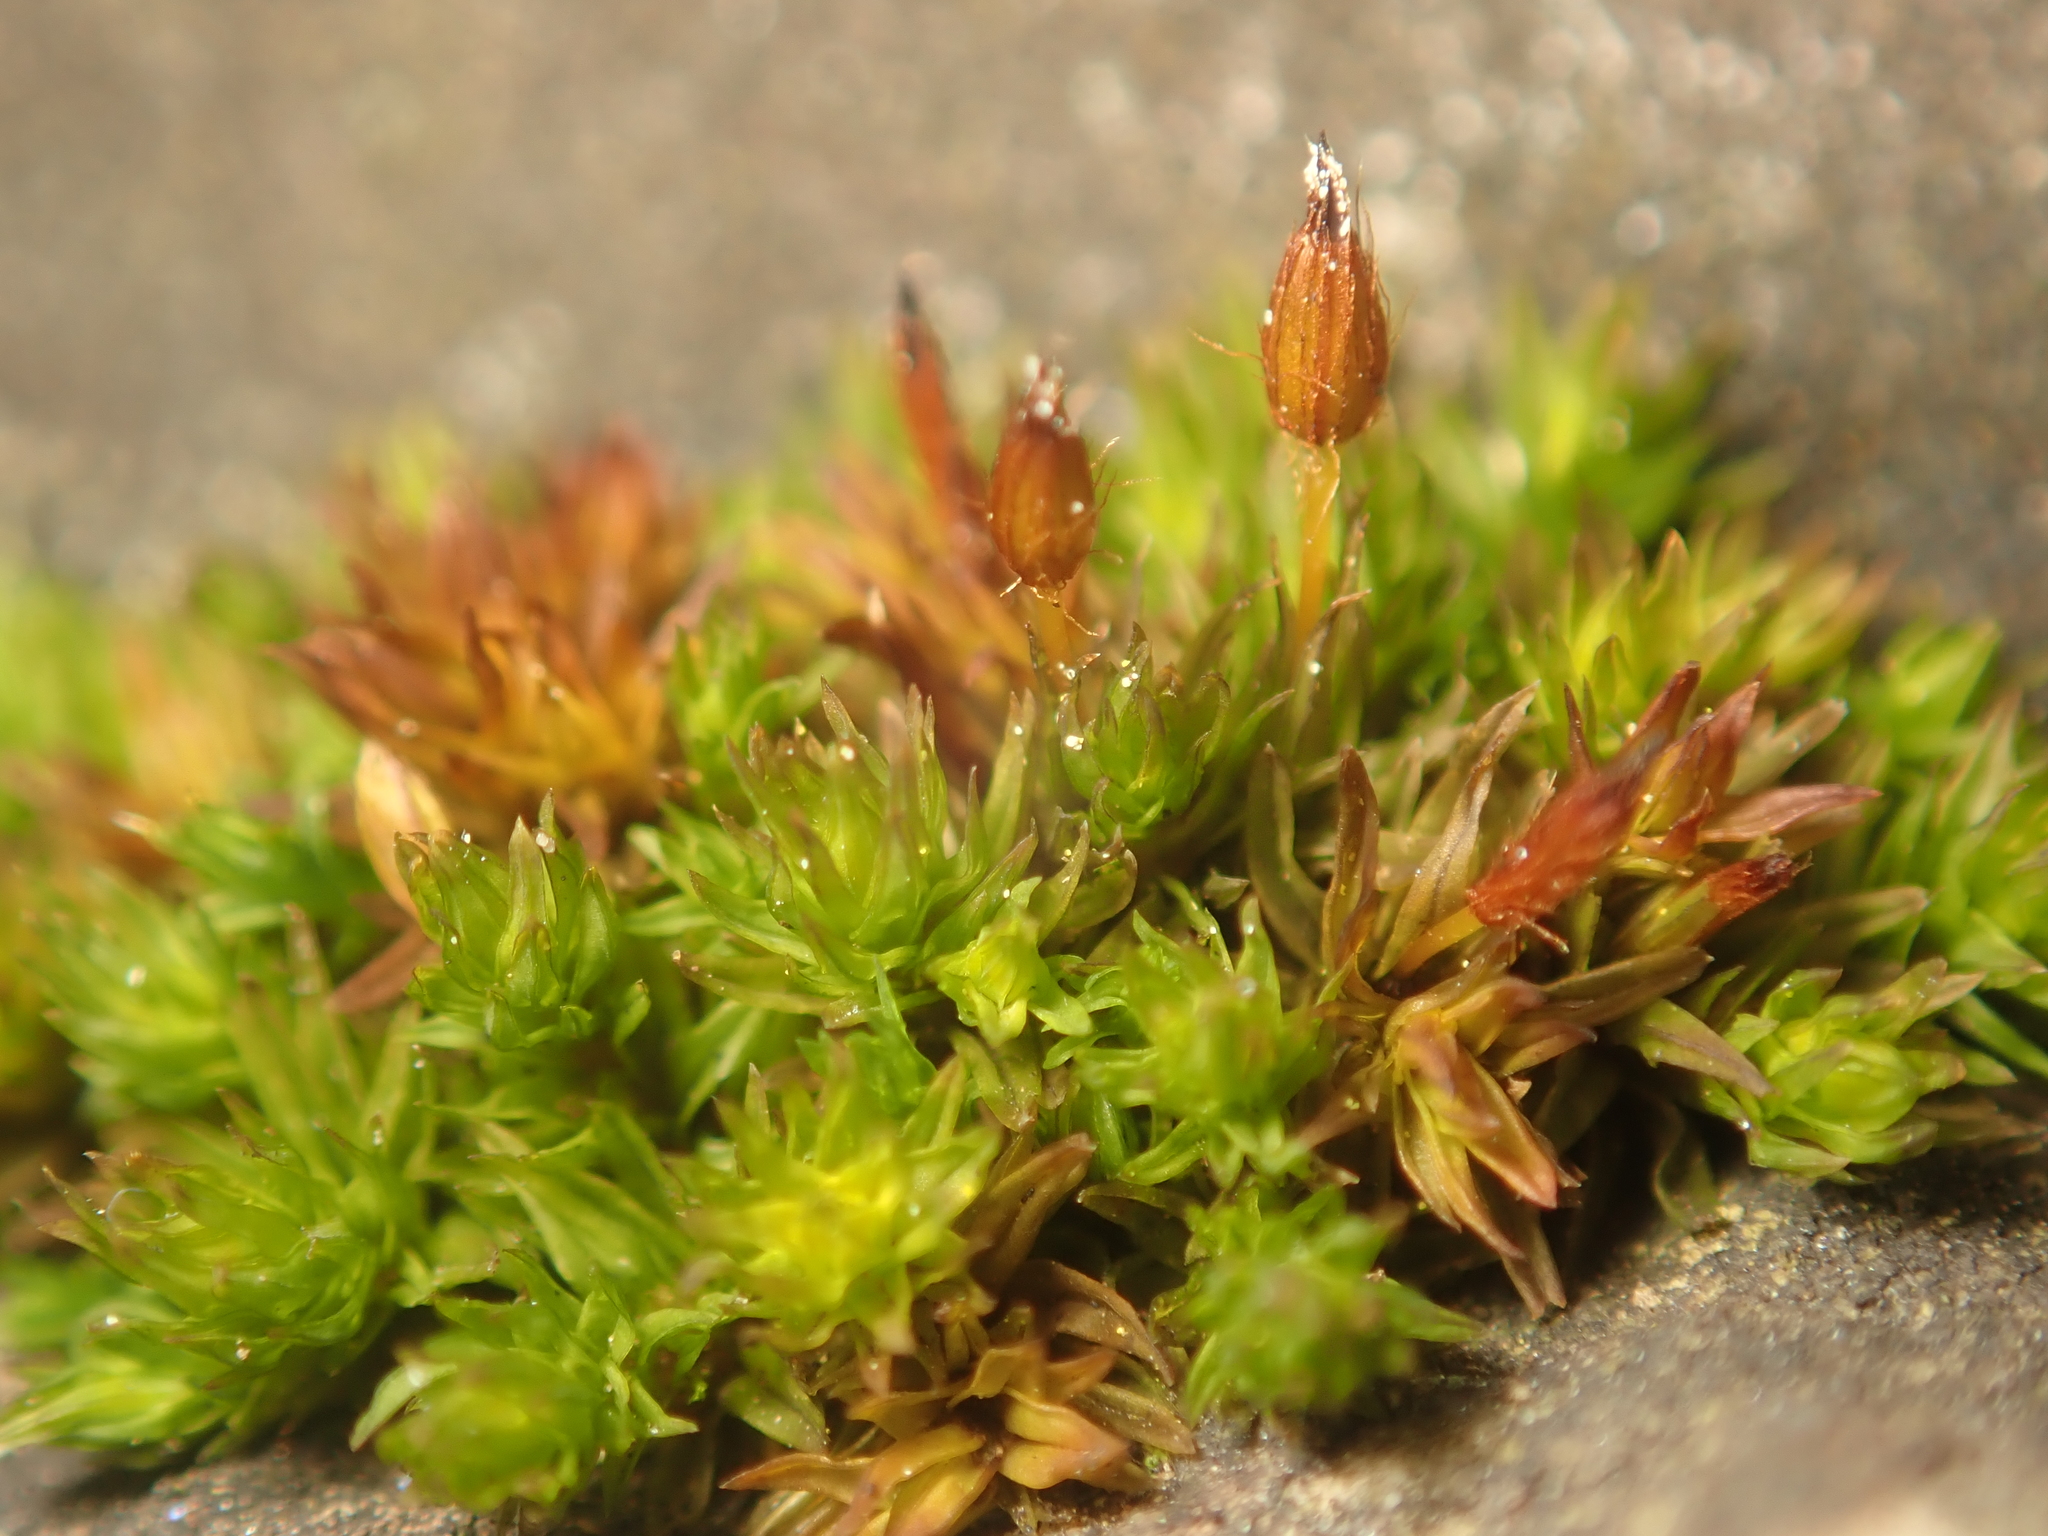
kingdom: Plantae
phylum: Bryophyta
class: Bryopsida
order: Orthotrichales
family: Orthotrichaceae
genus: Orthotrichum
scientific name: Orthotrichum anomalum
